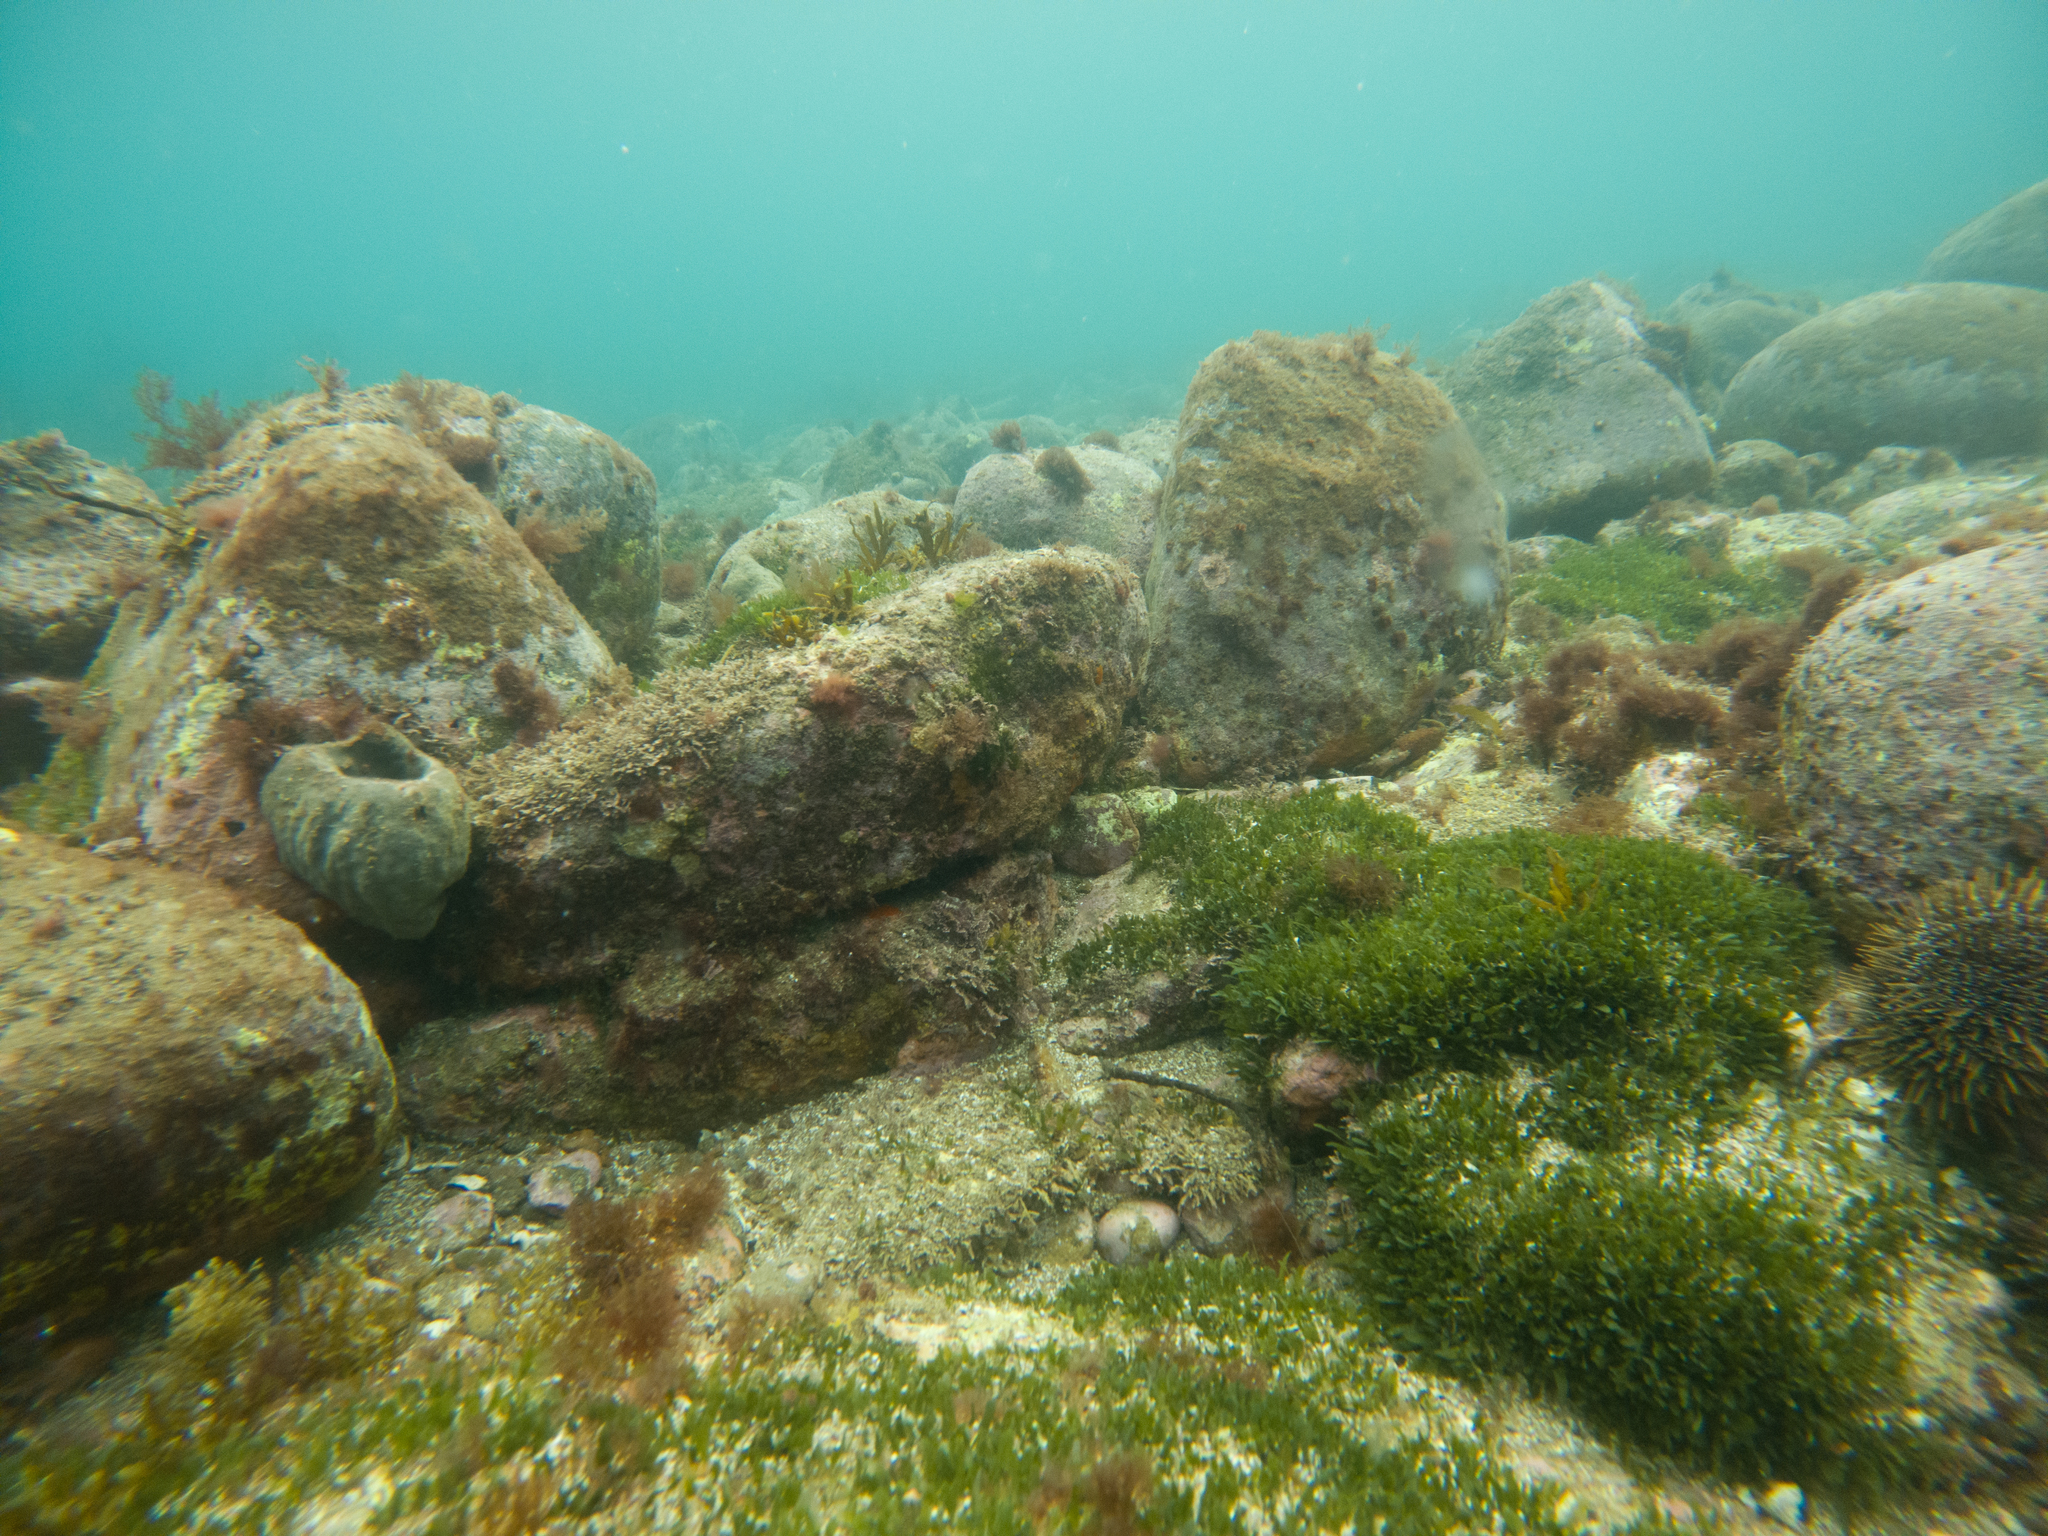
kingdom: Animalia
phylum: Echinodermata
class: Echinoidea
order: Camarodonta
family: Echinometridae
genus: Evechinus
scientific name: Evechinus chloroticus
